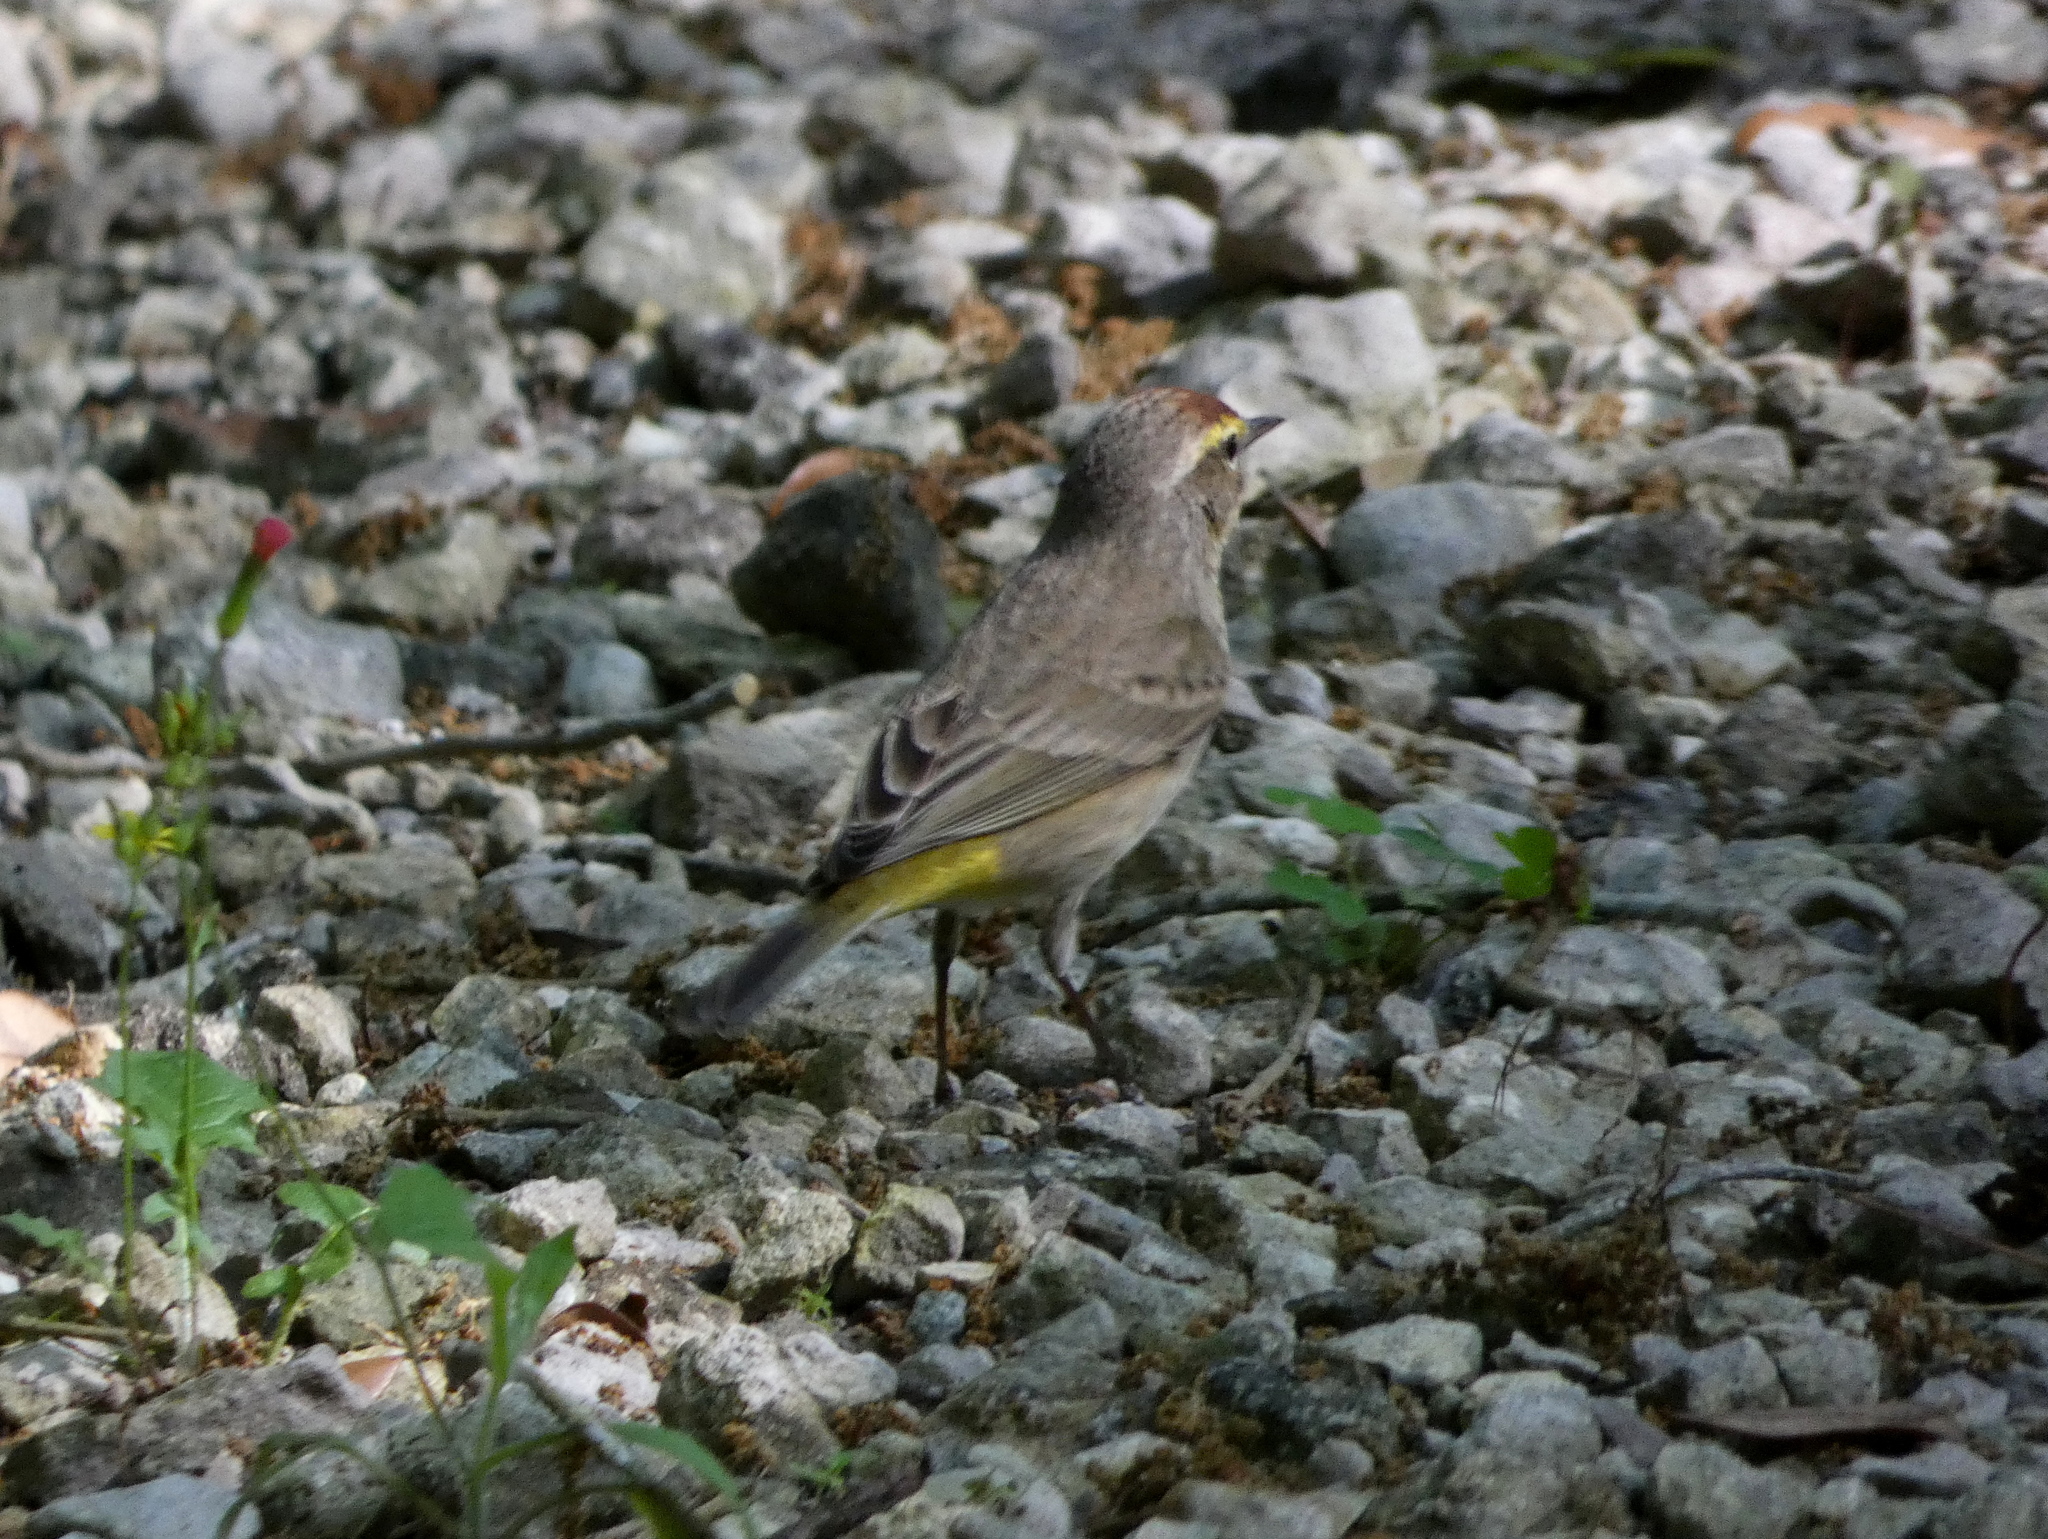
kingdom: Animalia
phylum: Chordata
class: Aves
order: Passeriformes
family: Parulidae
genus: Setophaga
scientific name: Setophaga palmarum
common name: Palm warbler
